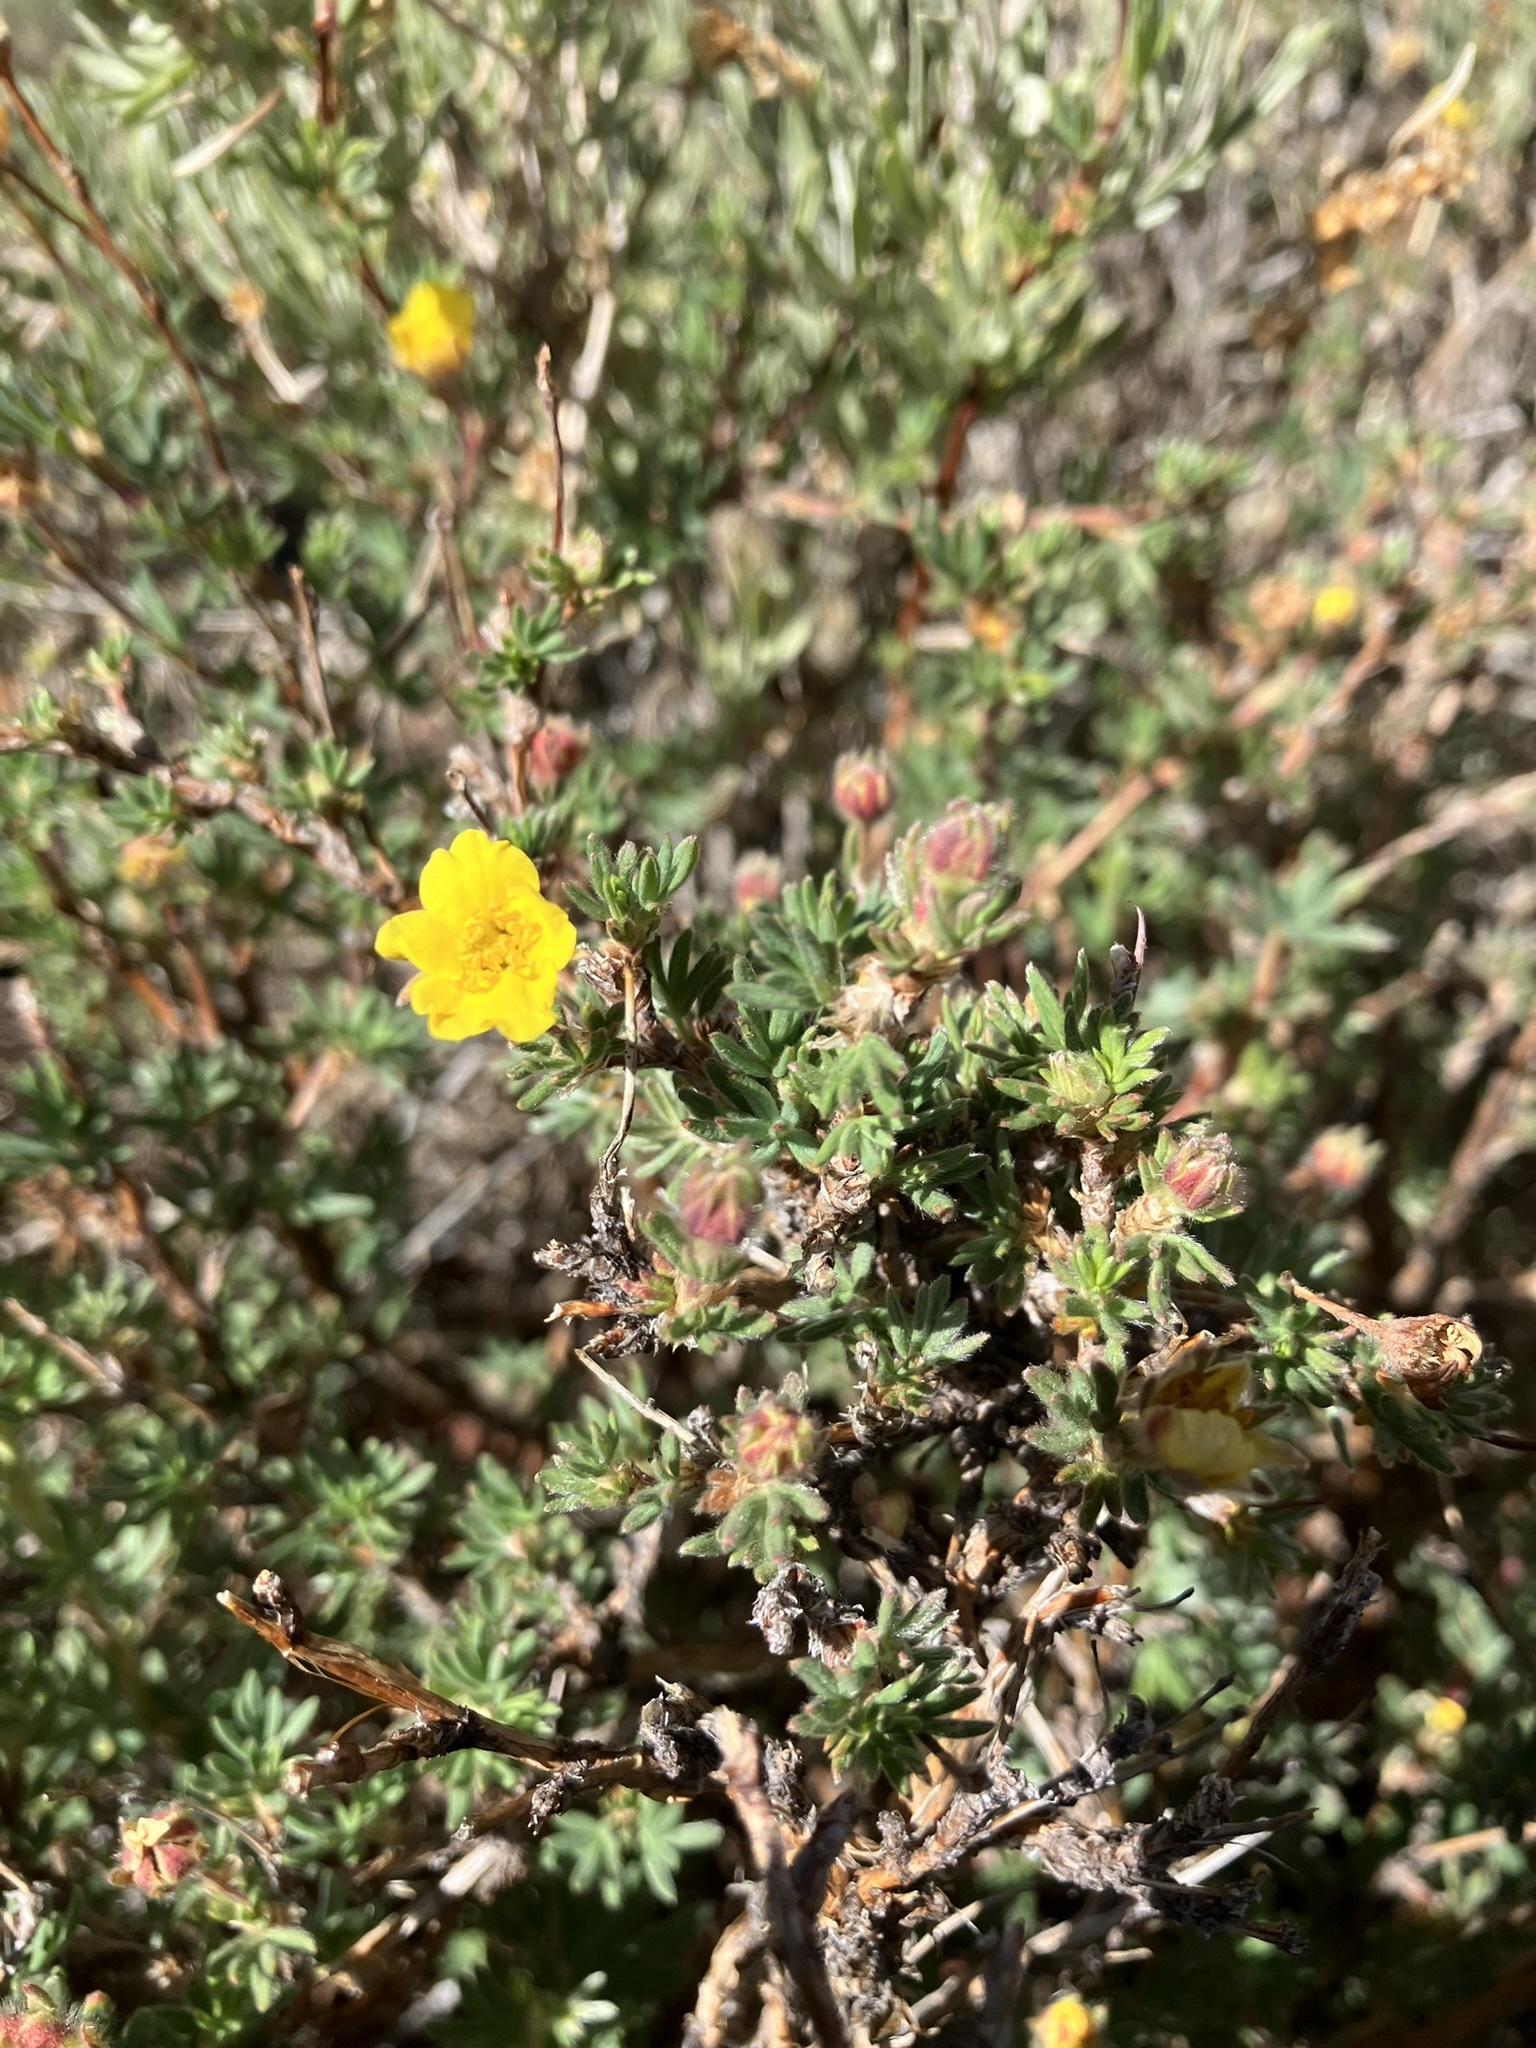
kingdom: Plantae
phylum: Tracheophyta
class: Magnoliopsida
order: Rosales
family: Rosaceae
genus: Dasiphora
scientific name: Dasiphora fruticosa
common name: Shrubby cinquefoil
